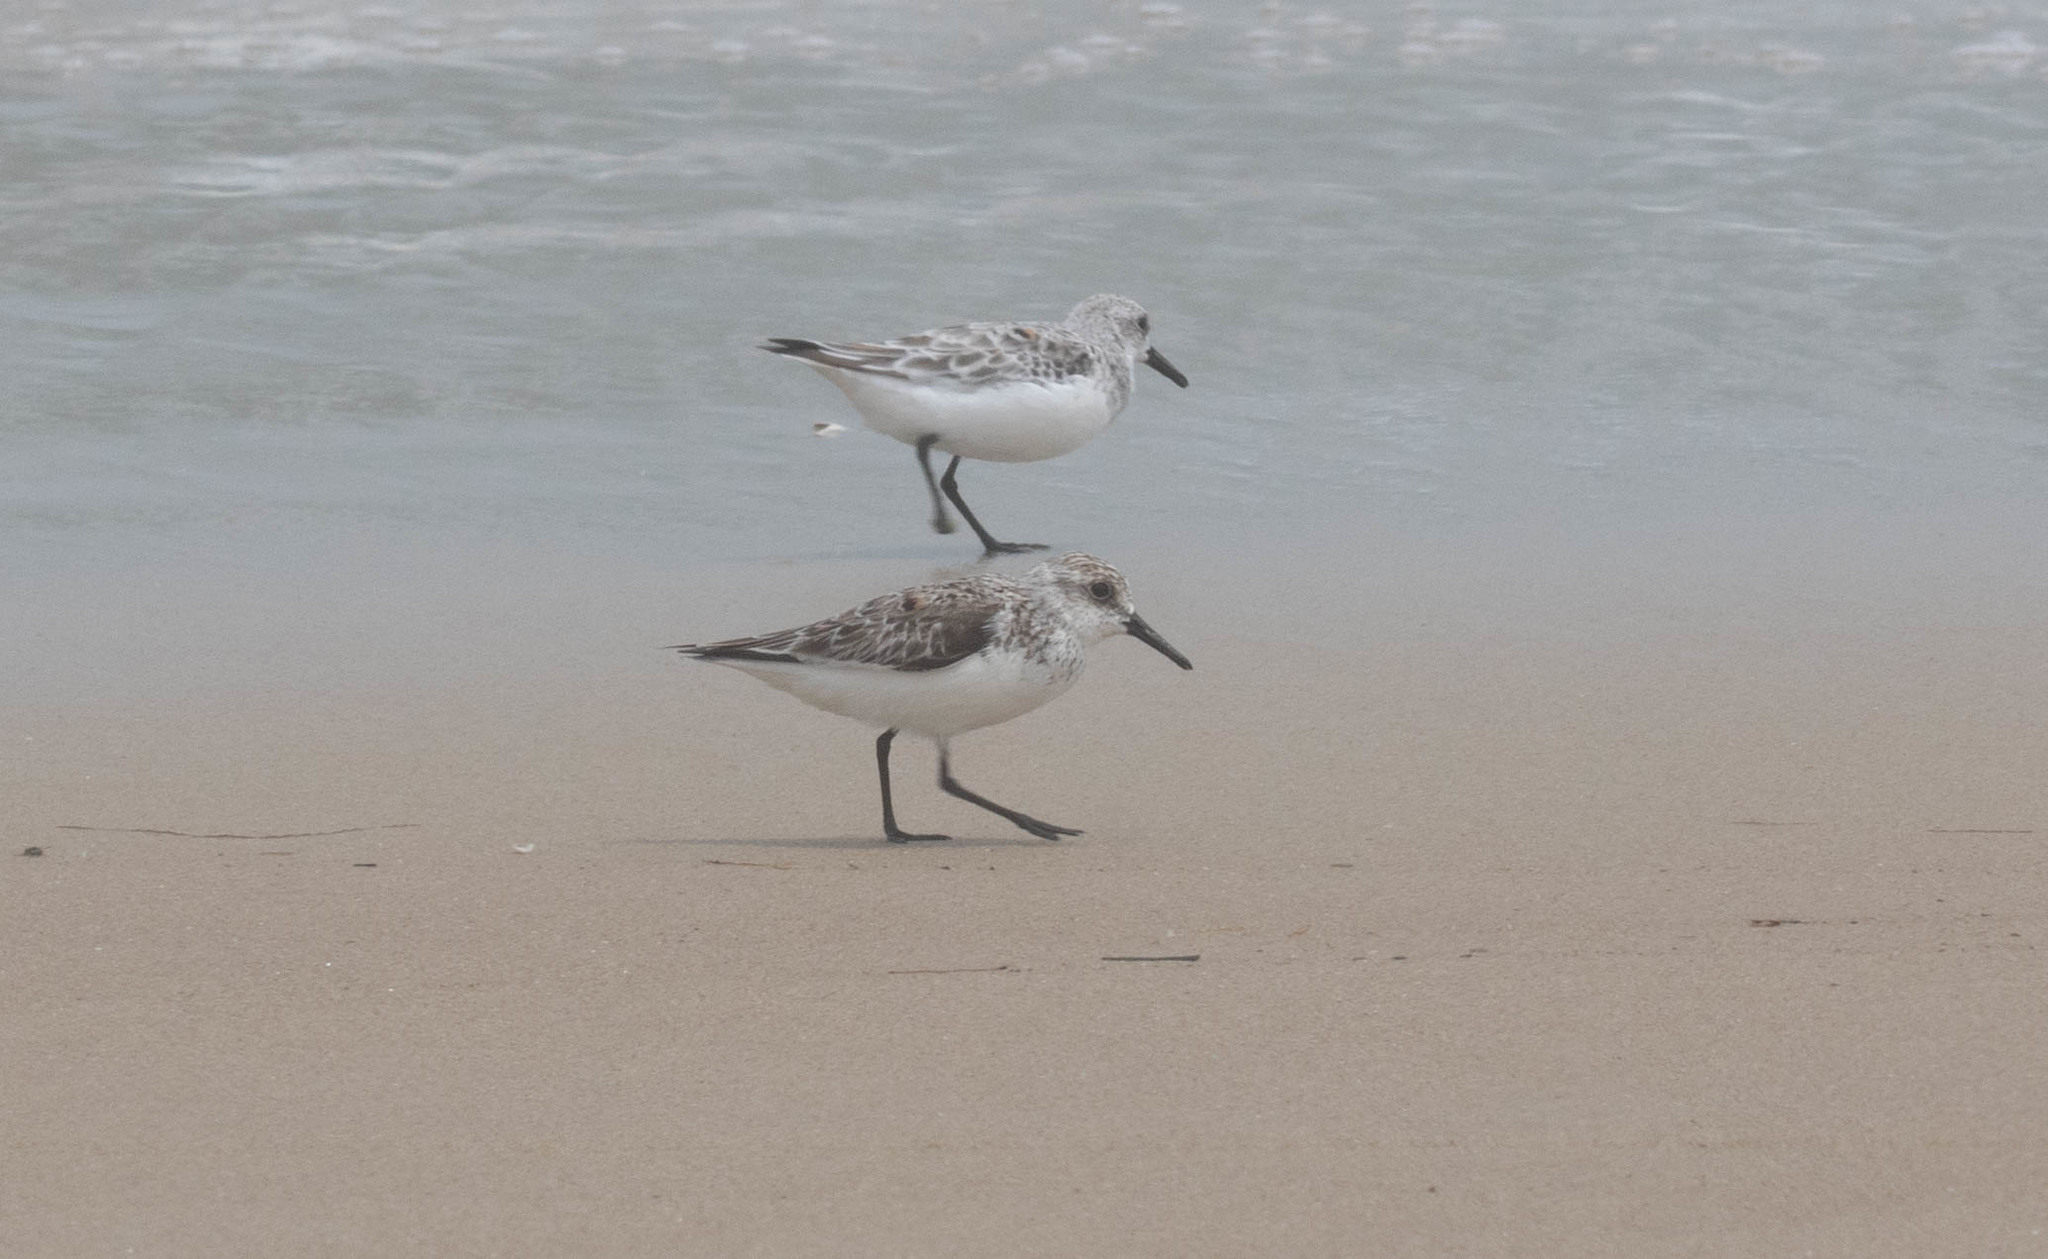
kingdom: Animalia
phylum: Chordata
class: Aves
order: Charadriiformes
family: Scolopacidae
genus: Calidris
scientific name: Calidris alba
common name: Sanderling
